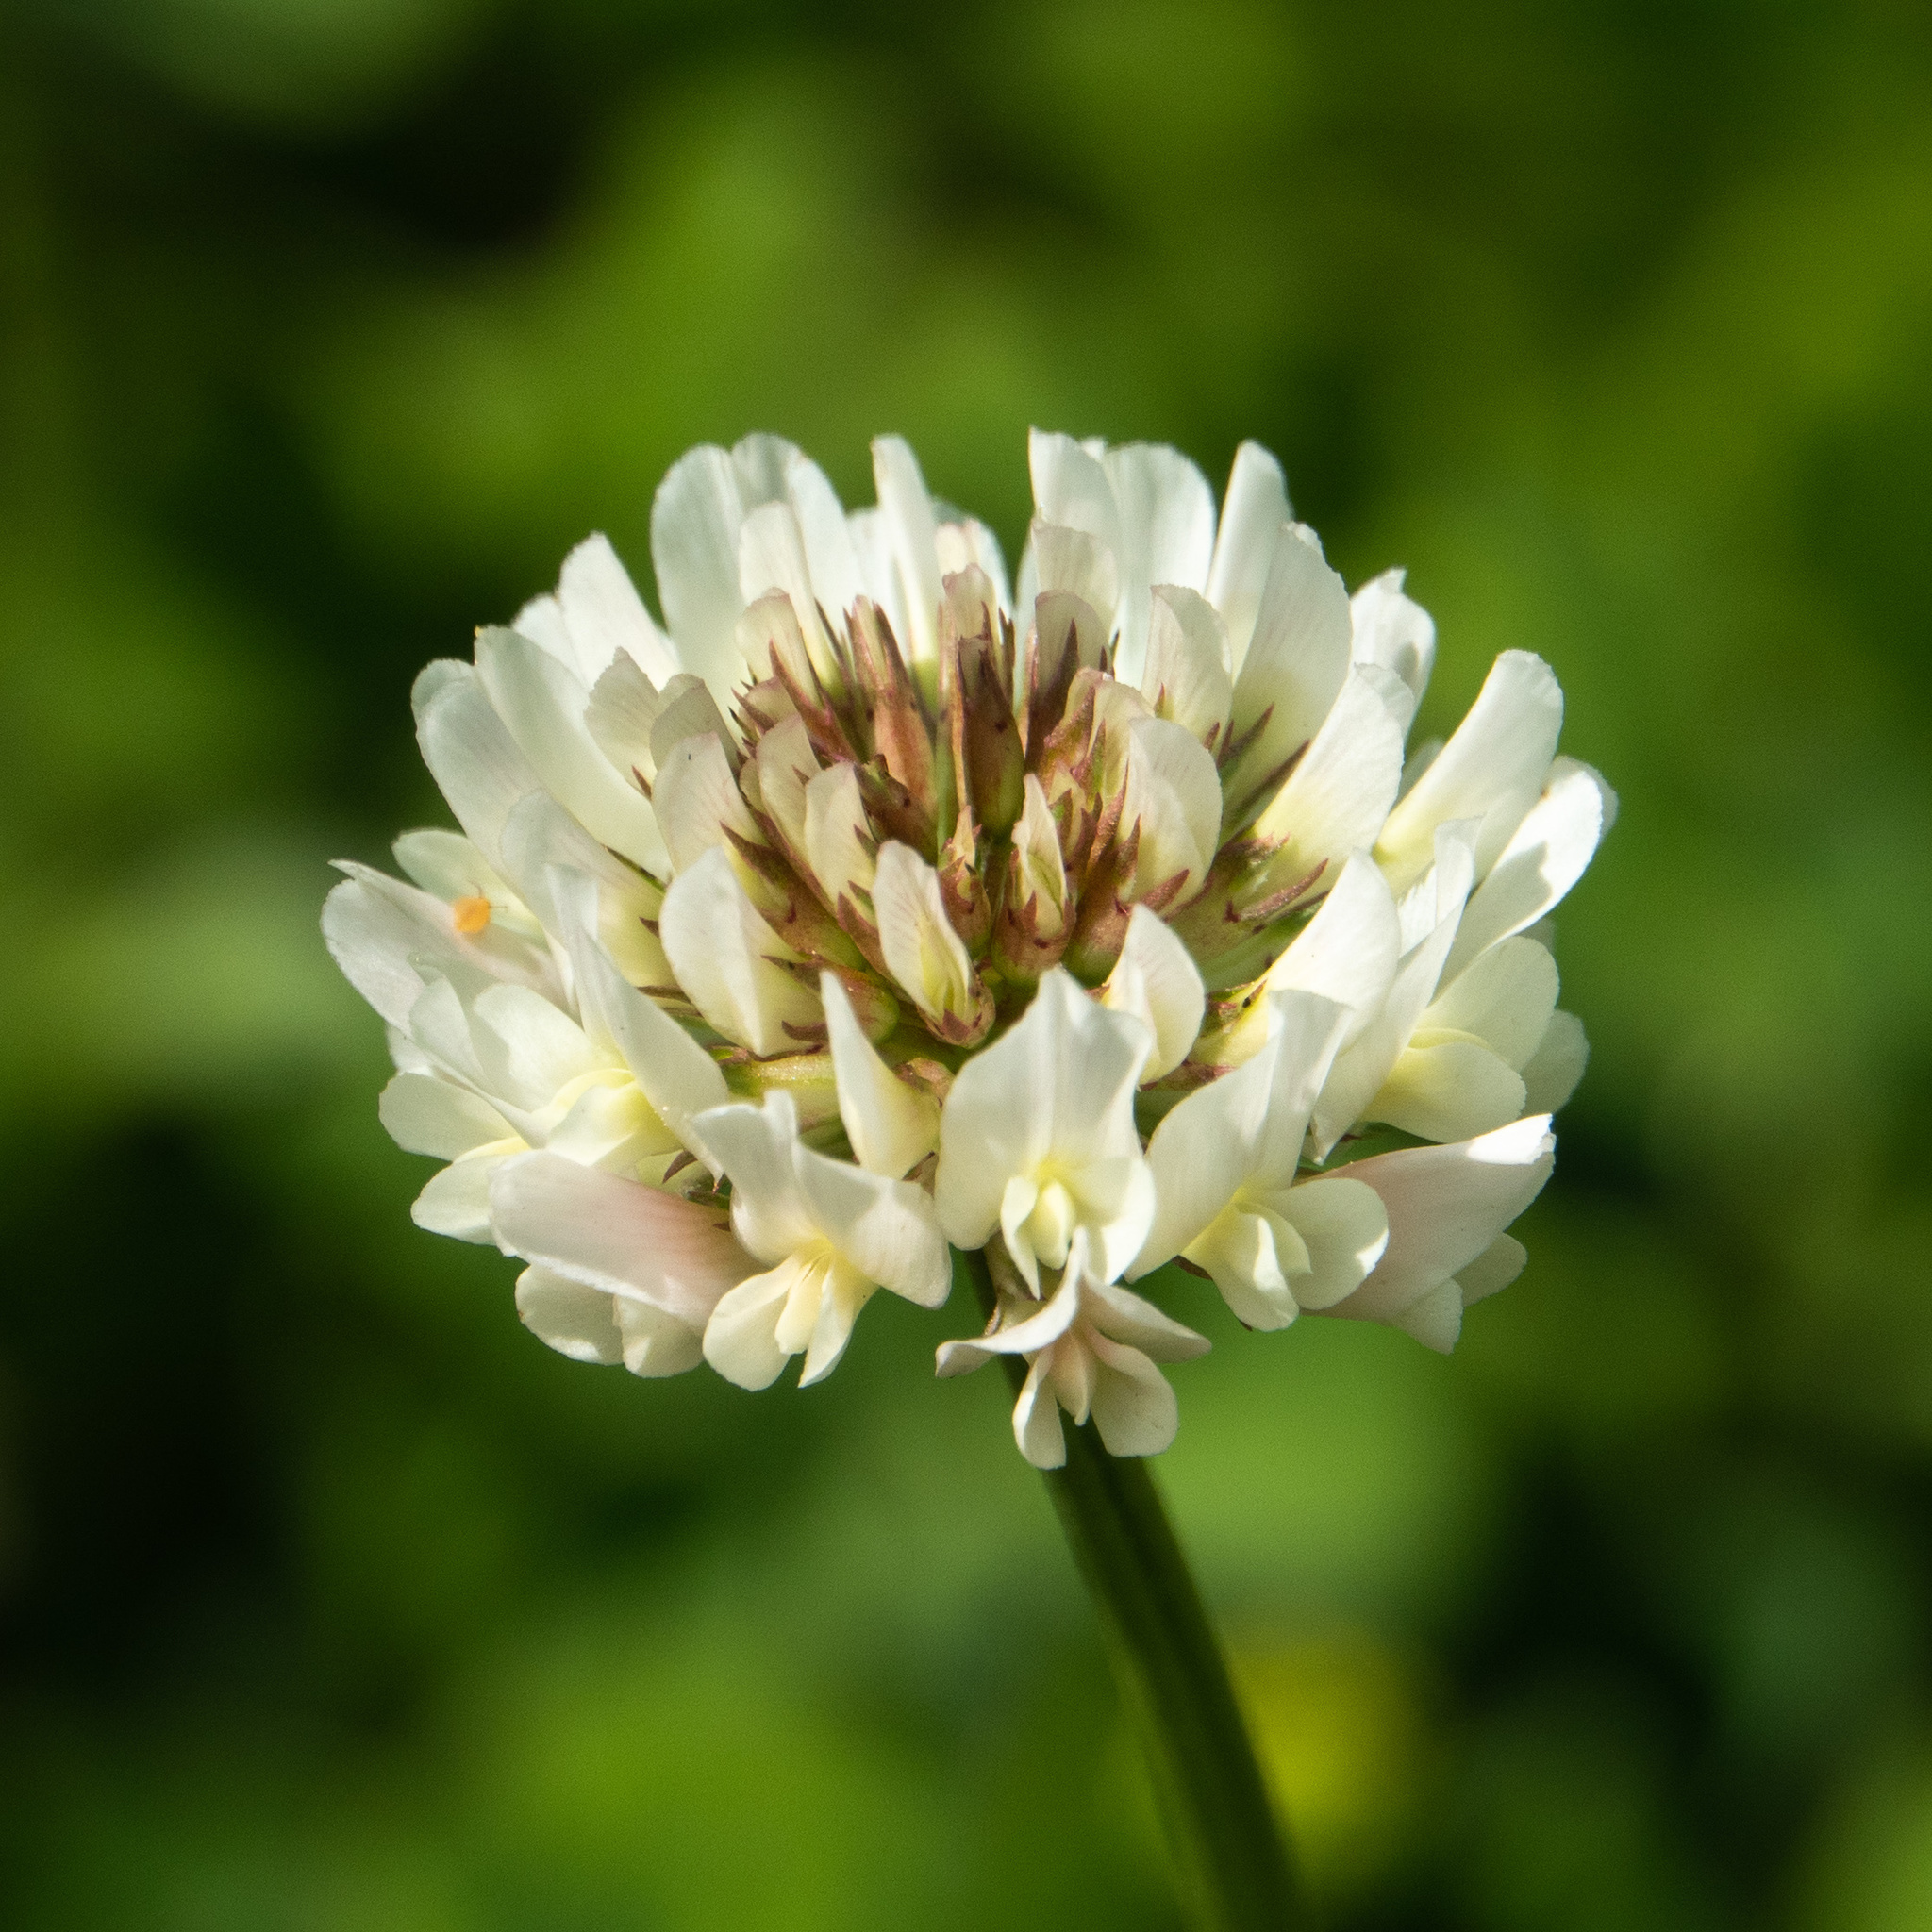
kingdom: Plantae
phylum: Tracheophyta
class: Magnoliopsida
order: Fabales
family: Fabaceae
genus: Trifolium
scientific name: Trifolium repens
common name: White clover
